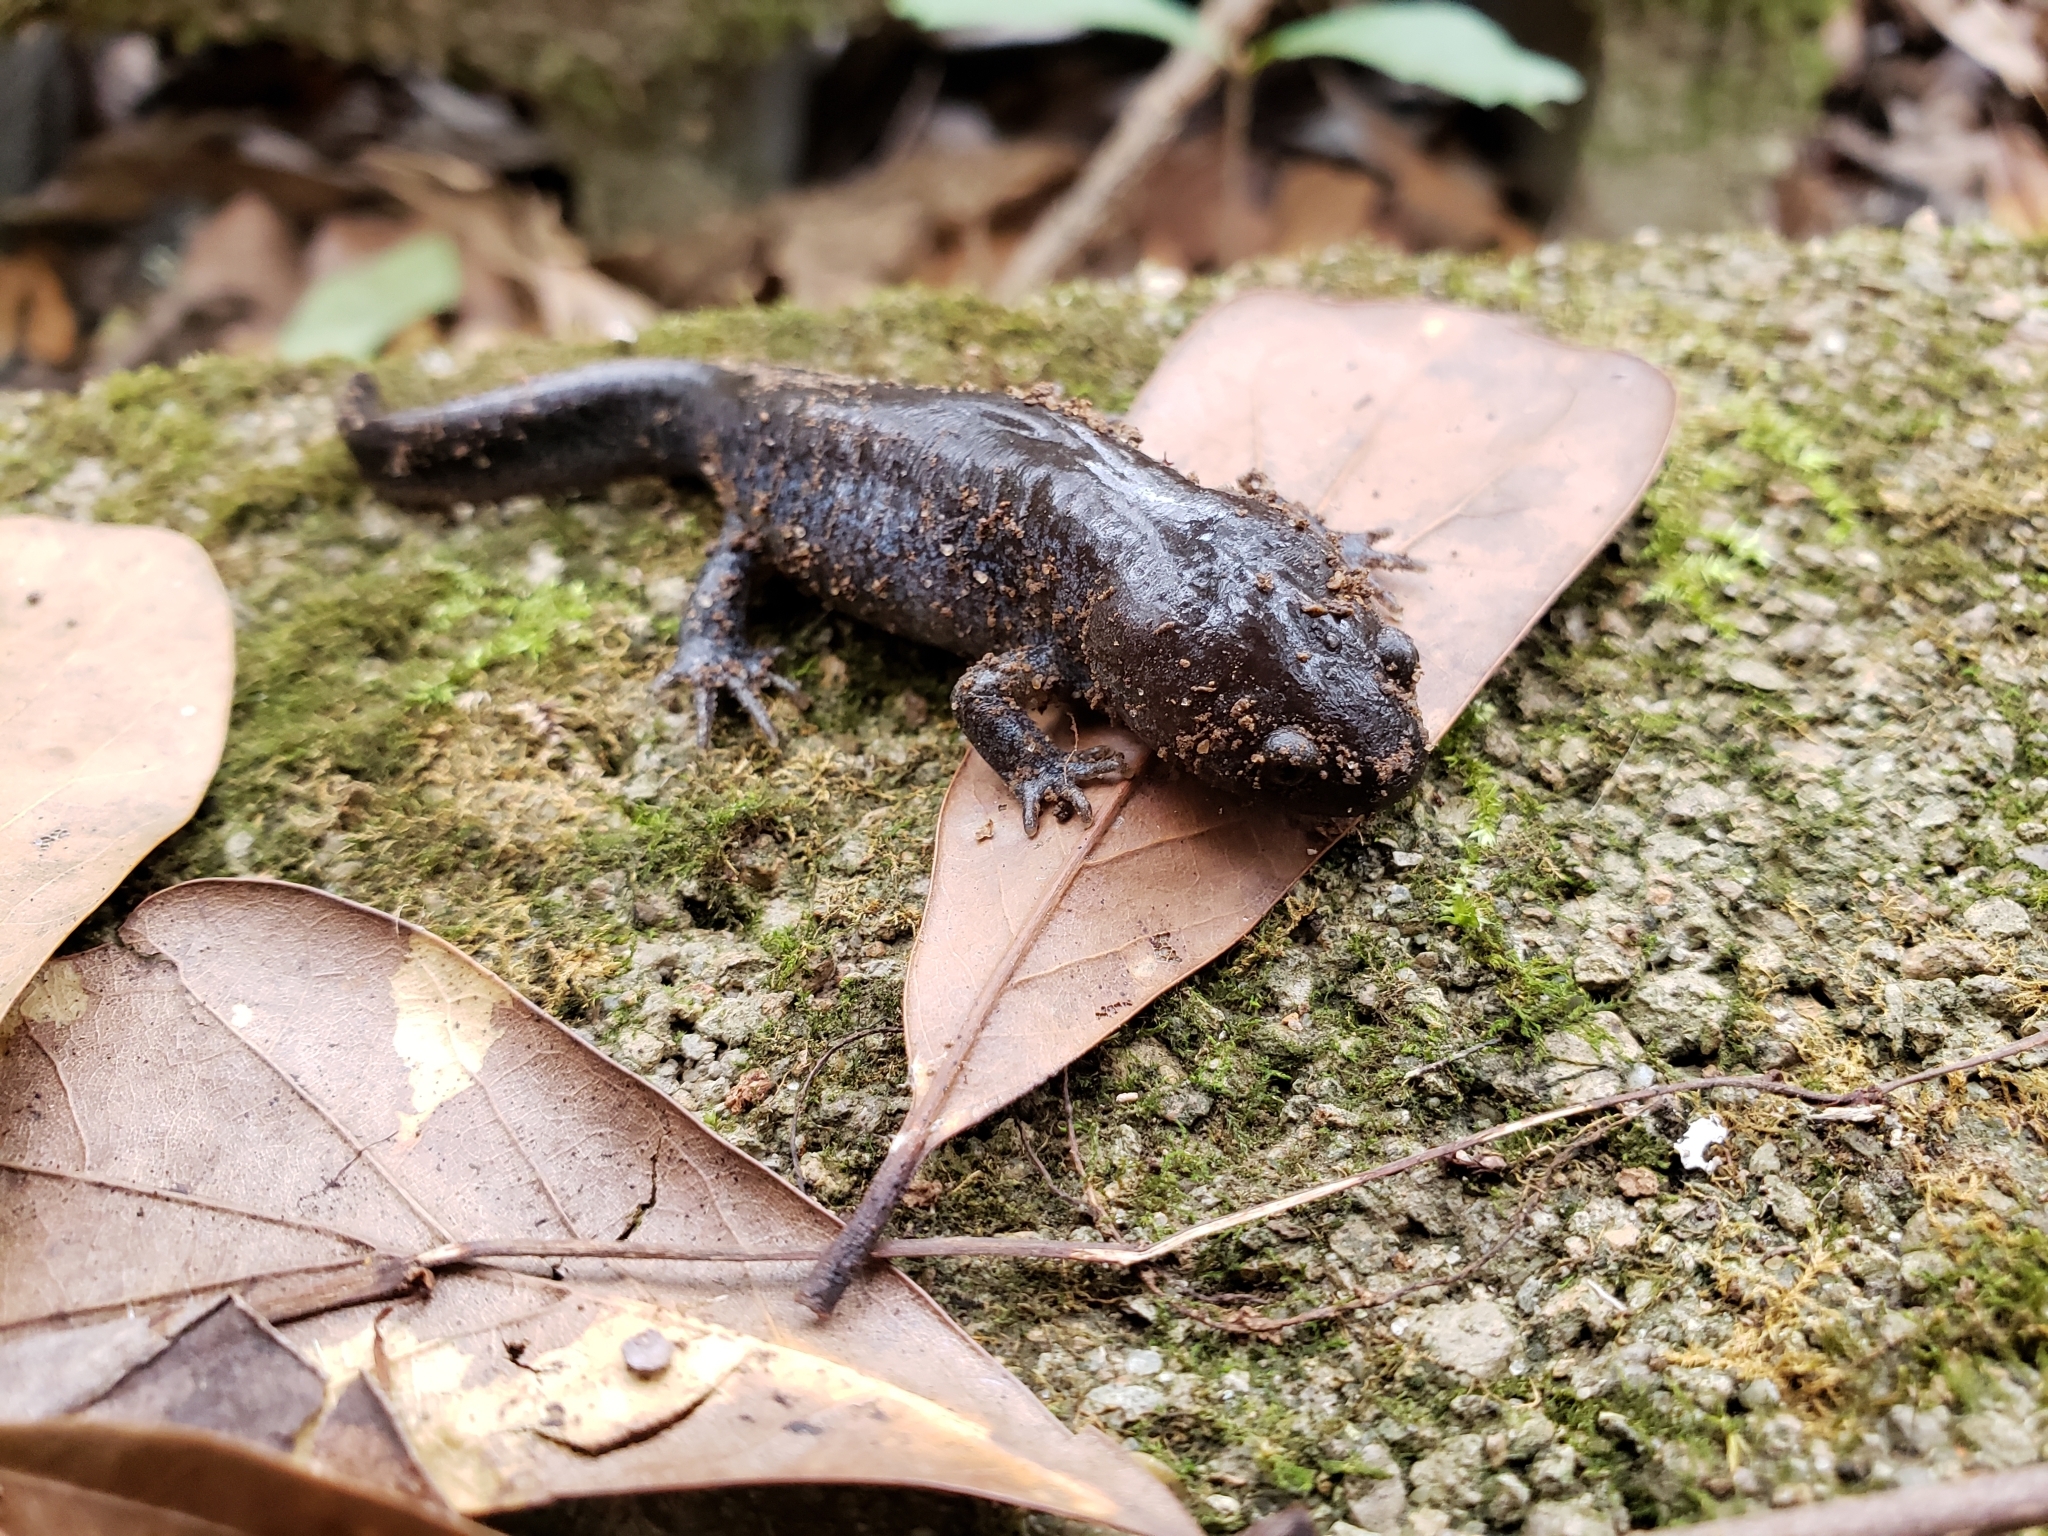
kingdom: Animalia
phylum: Chordata
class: Amphibia
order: Caudata
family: Ambystomatidae
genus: Ambystoma
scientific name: Ambystoma talpoideum
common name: Mole salamander
